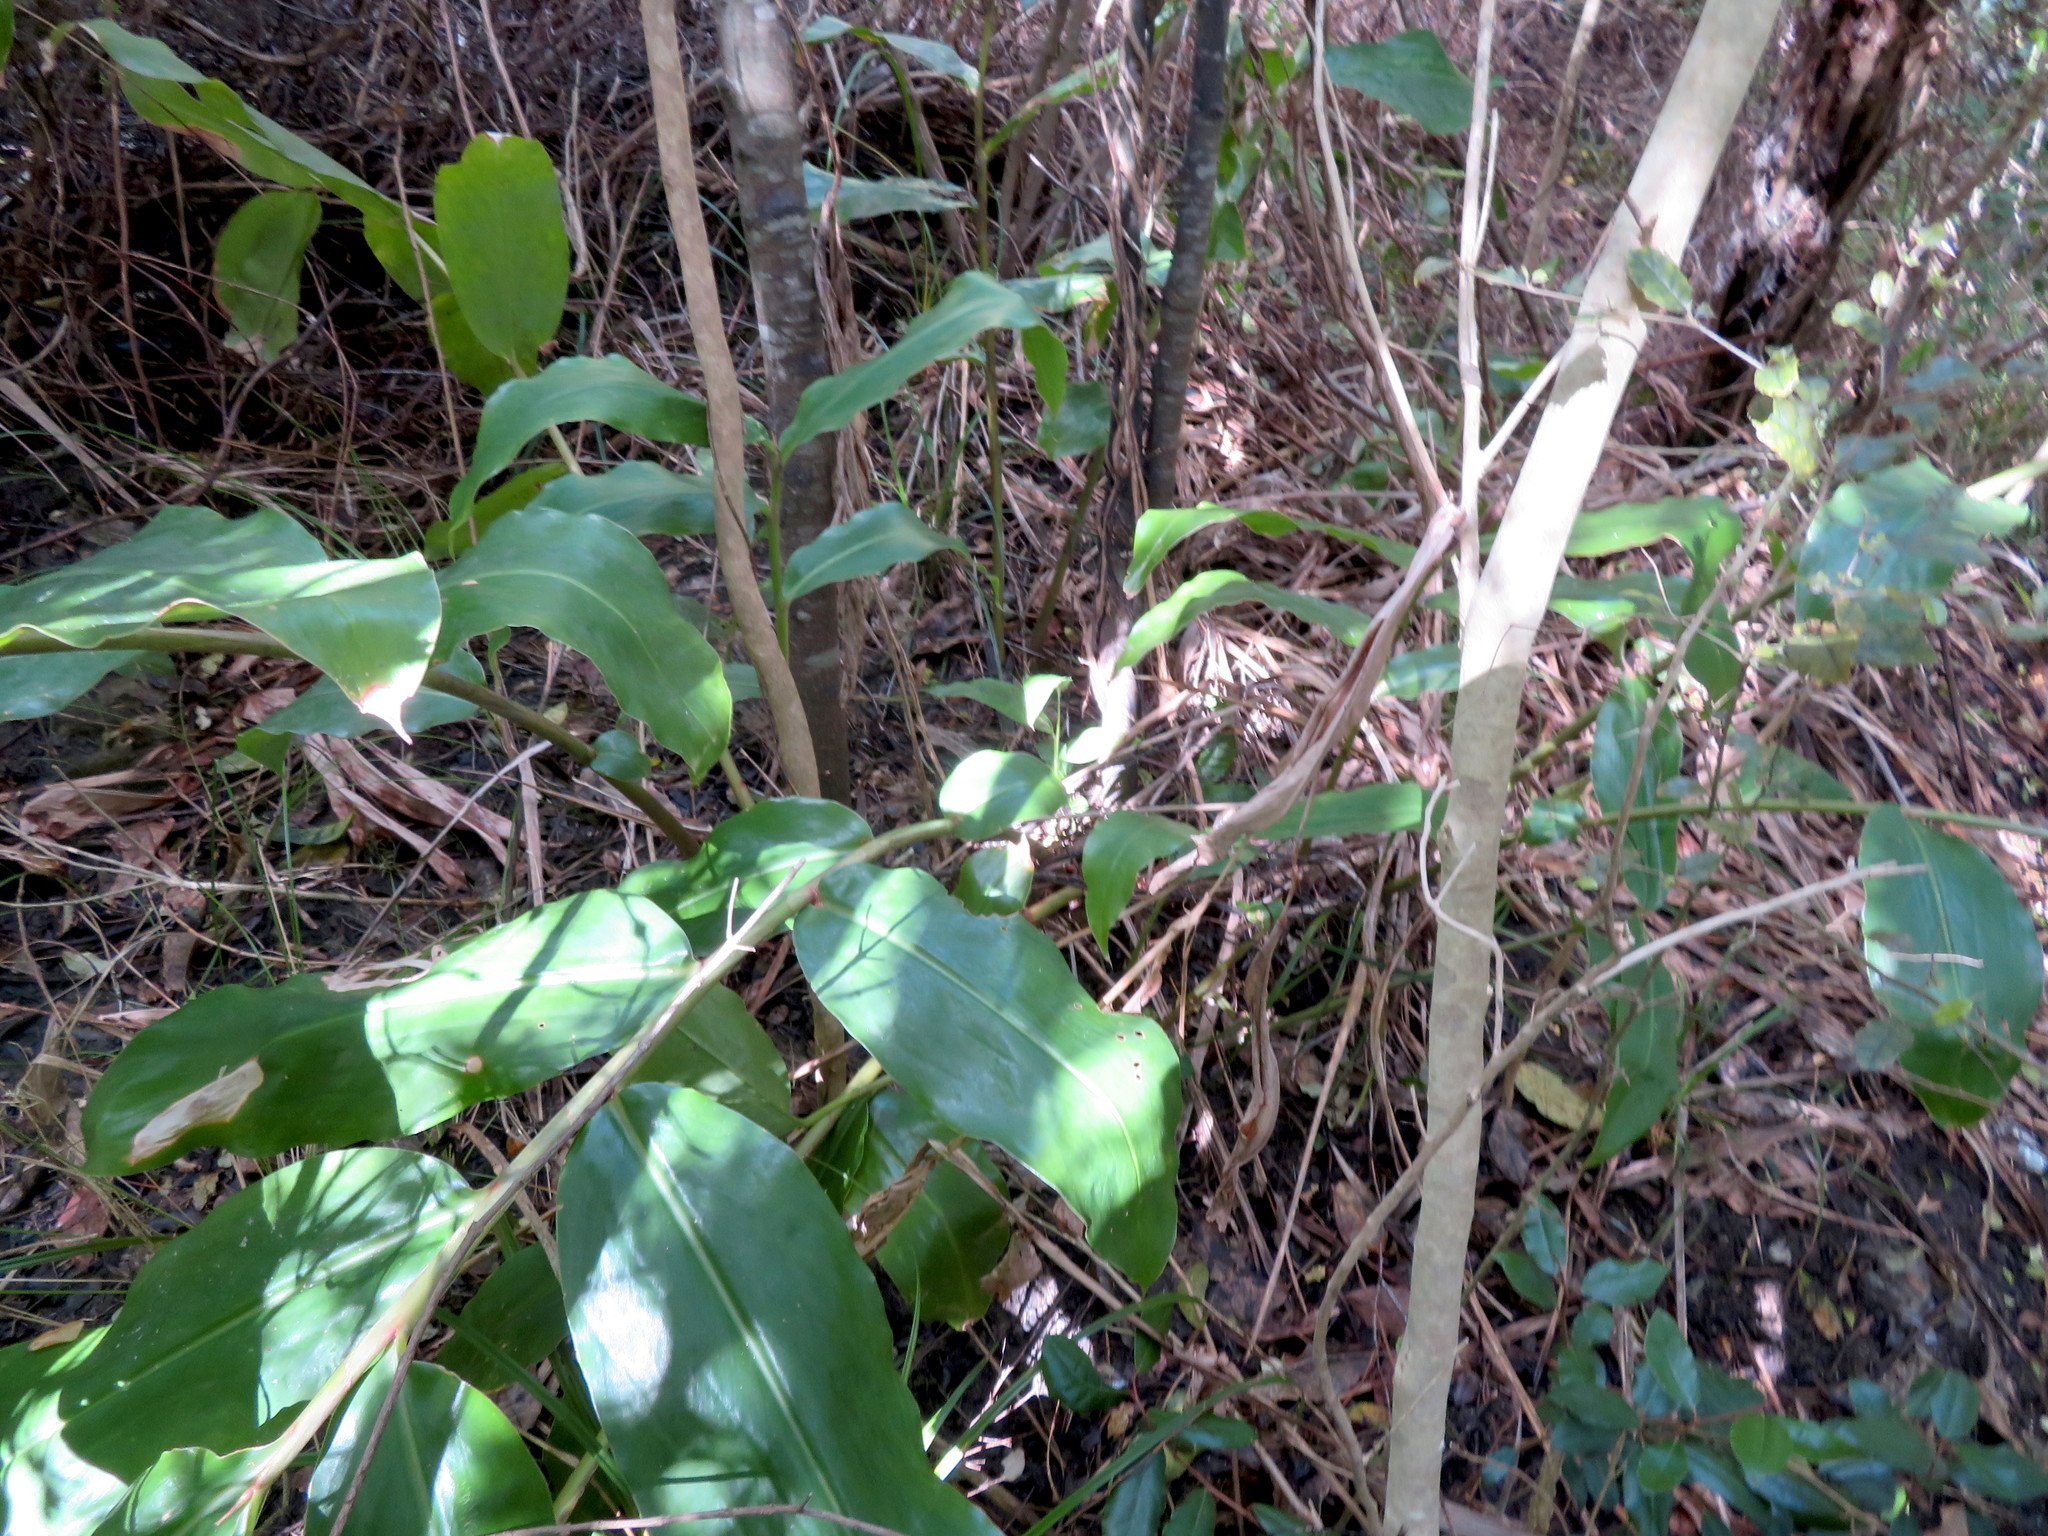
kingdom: Plantae
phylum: Tracheophyta
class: Liliopsida
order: Zingiberales
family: Zingiberaceae
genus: Hedychium
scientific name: Hedychium gardnerianum
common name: Himalayan ginger
